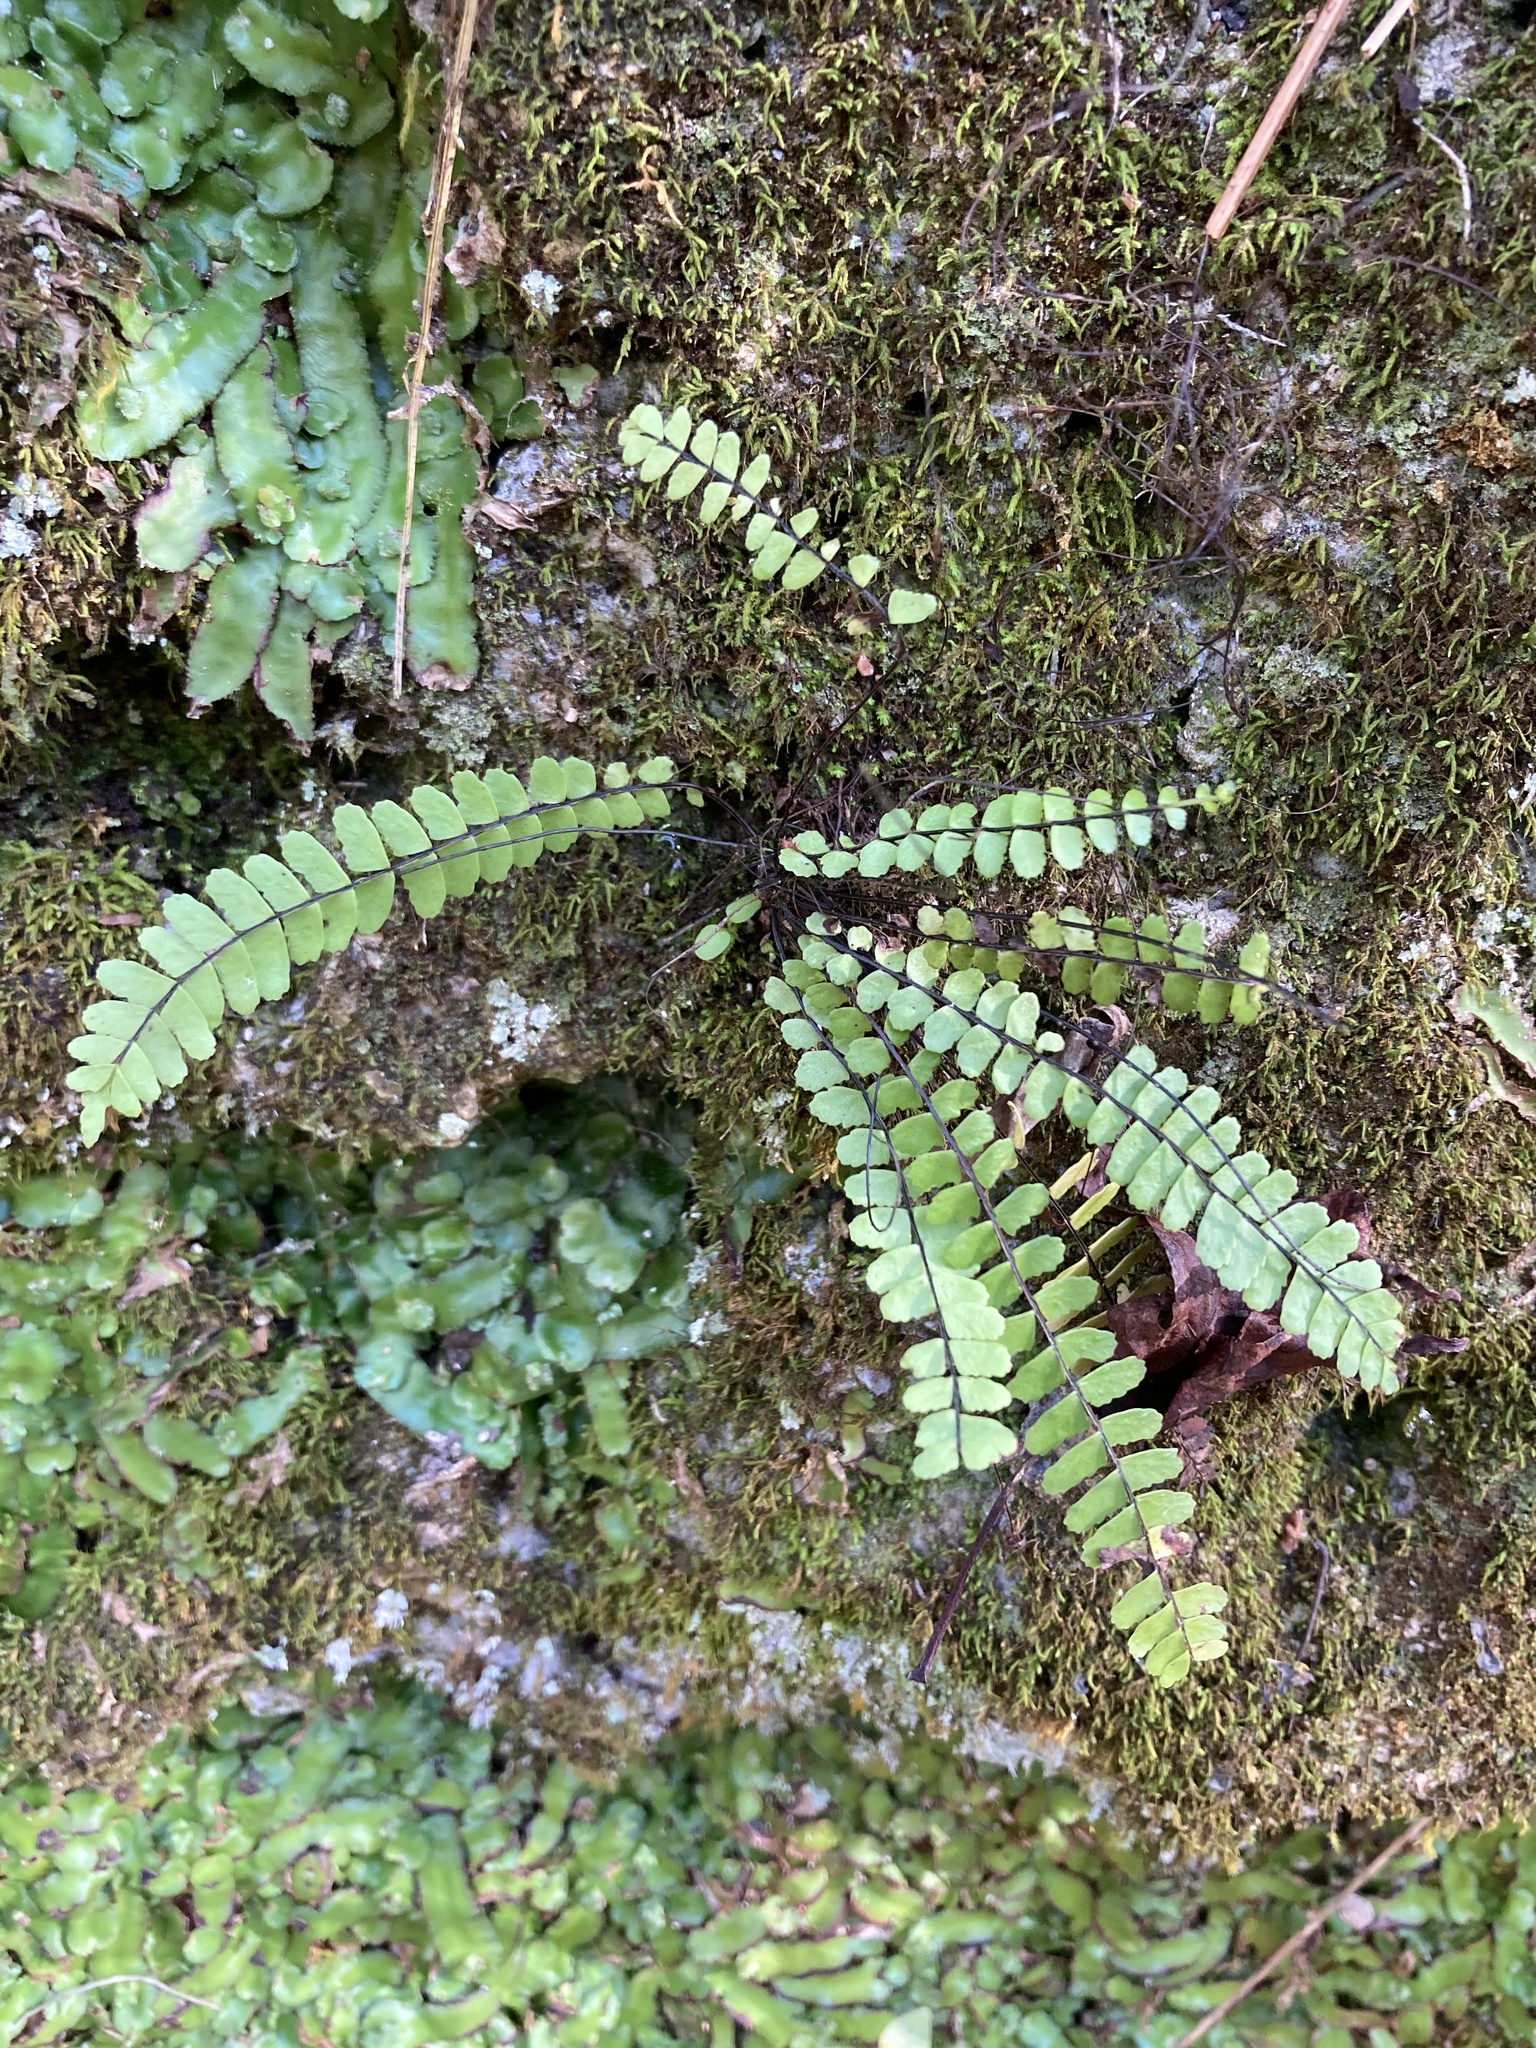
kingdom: Plantae
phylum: Tracheophyta
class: Polypodiopsida
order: Polypodiales
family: Aspleniaceae
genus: Asplenium
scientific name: Asplenium heterochroum
